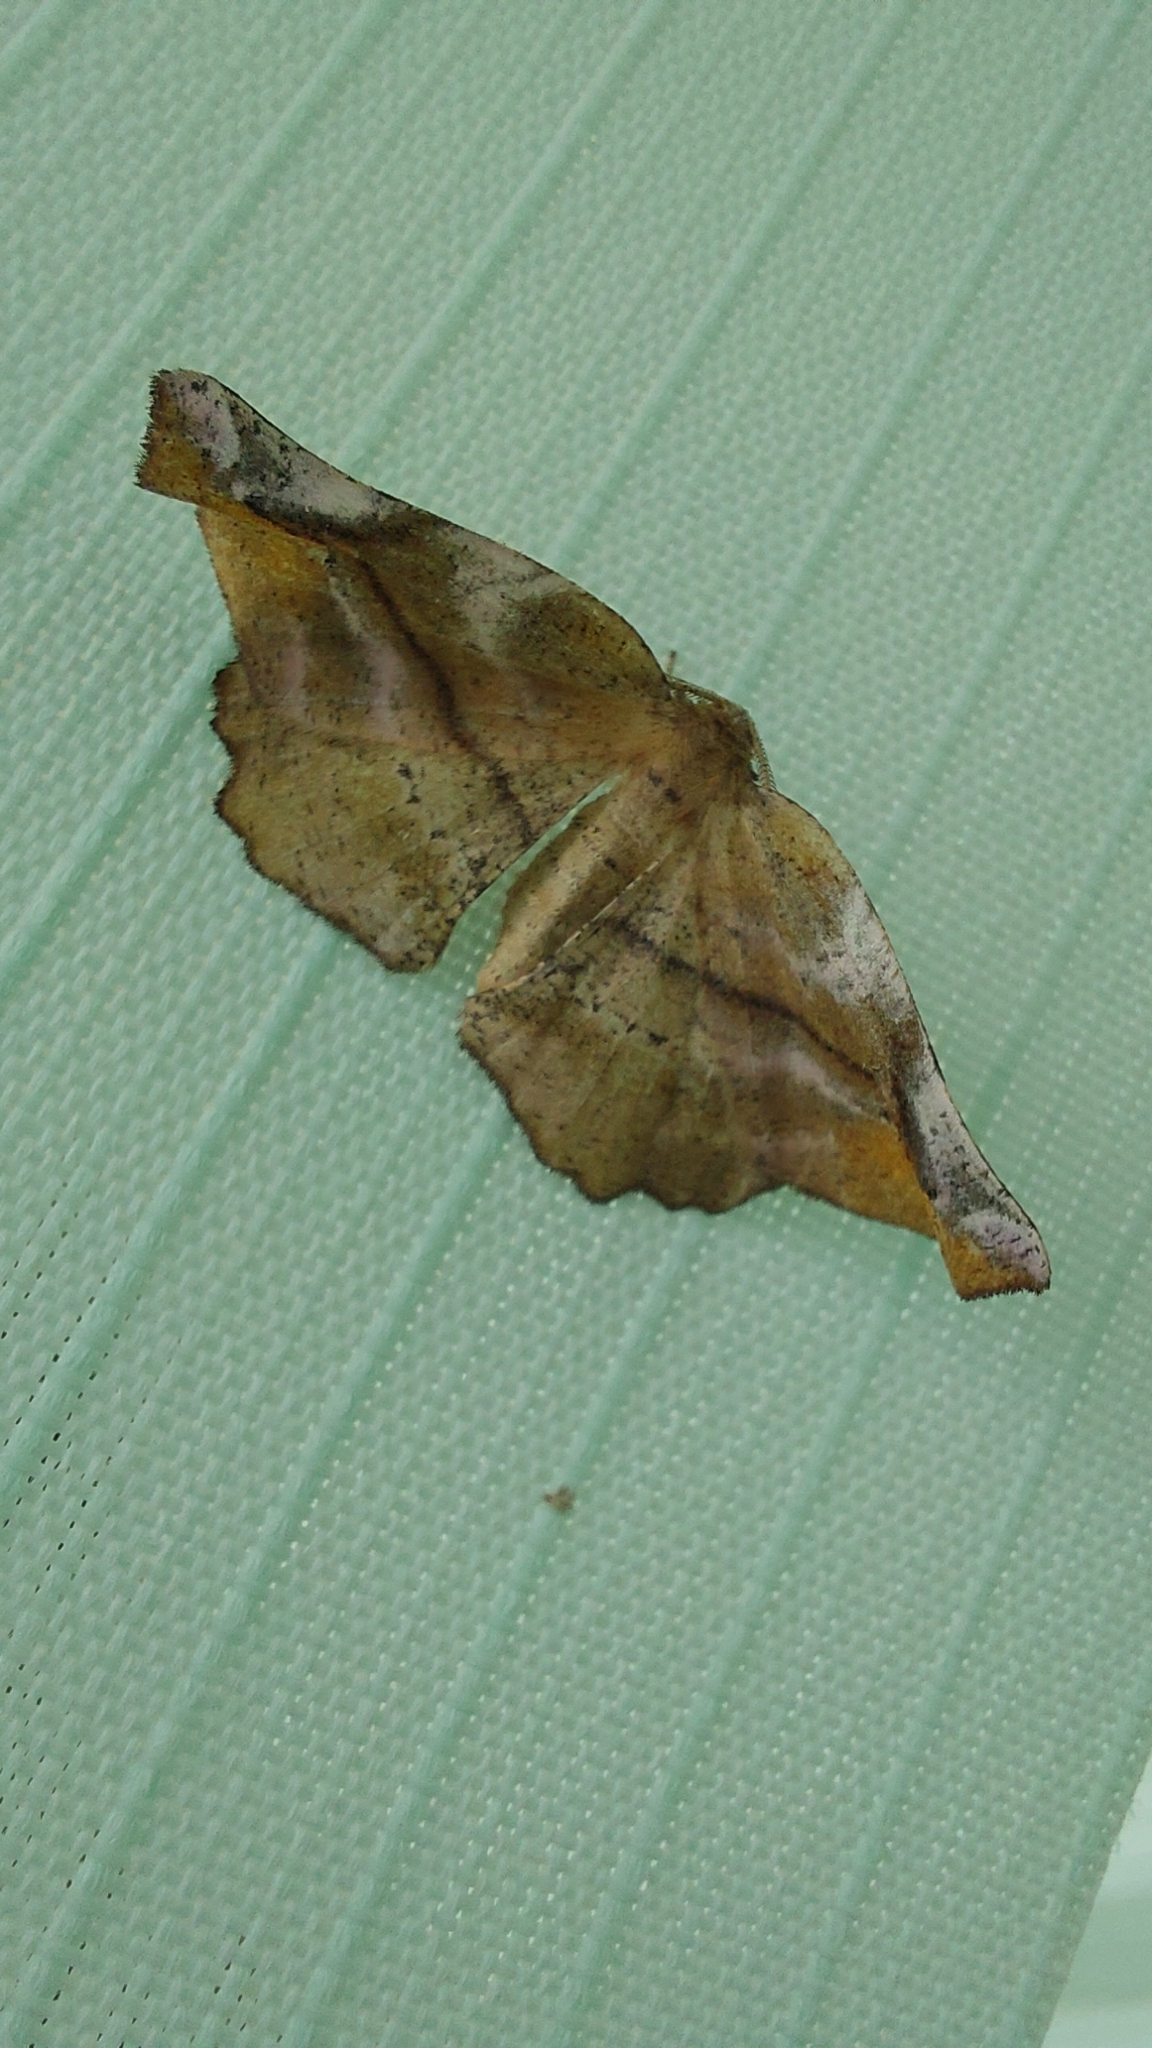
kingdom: Animalia
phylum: Arthropoda
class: Insecta
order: Lepidoptera
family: Geometridae
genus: Apeira
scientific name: Apeira syringaria
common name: Lilac beauty
